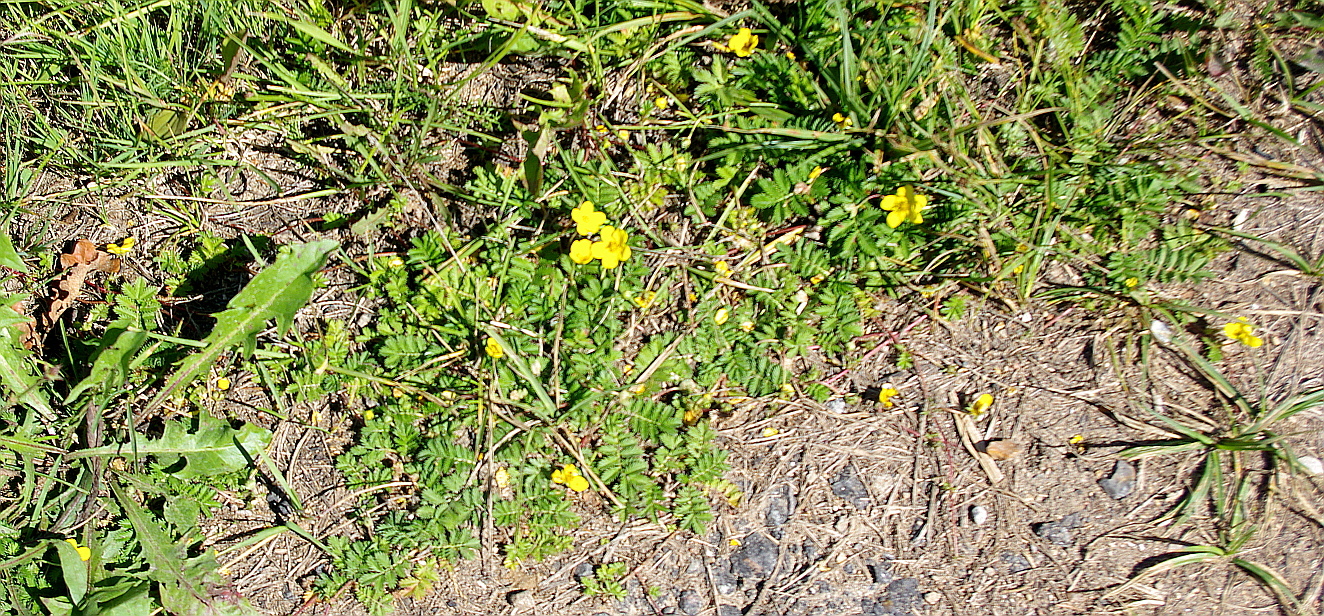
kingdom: Plantae
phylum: Tracheophyta
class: Magnoliopsida
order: Rosales
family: Rosaceae
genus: Argentina
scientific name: Argentina anserina
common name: Common silverweed
